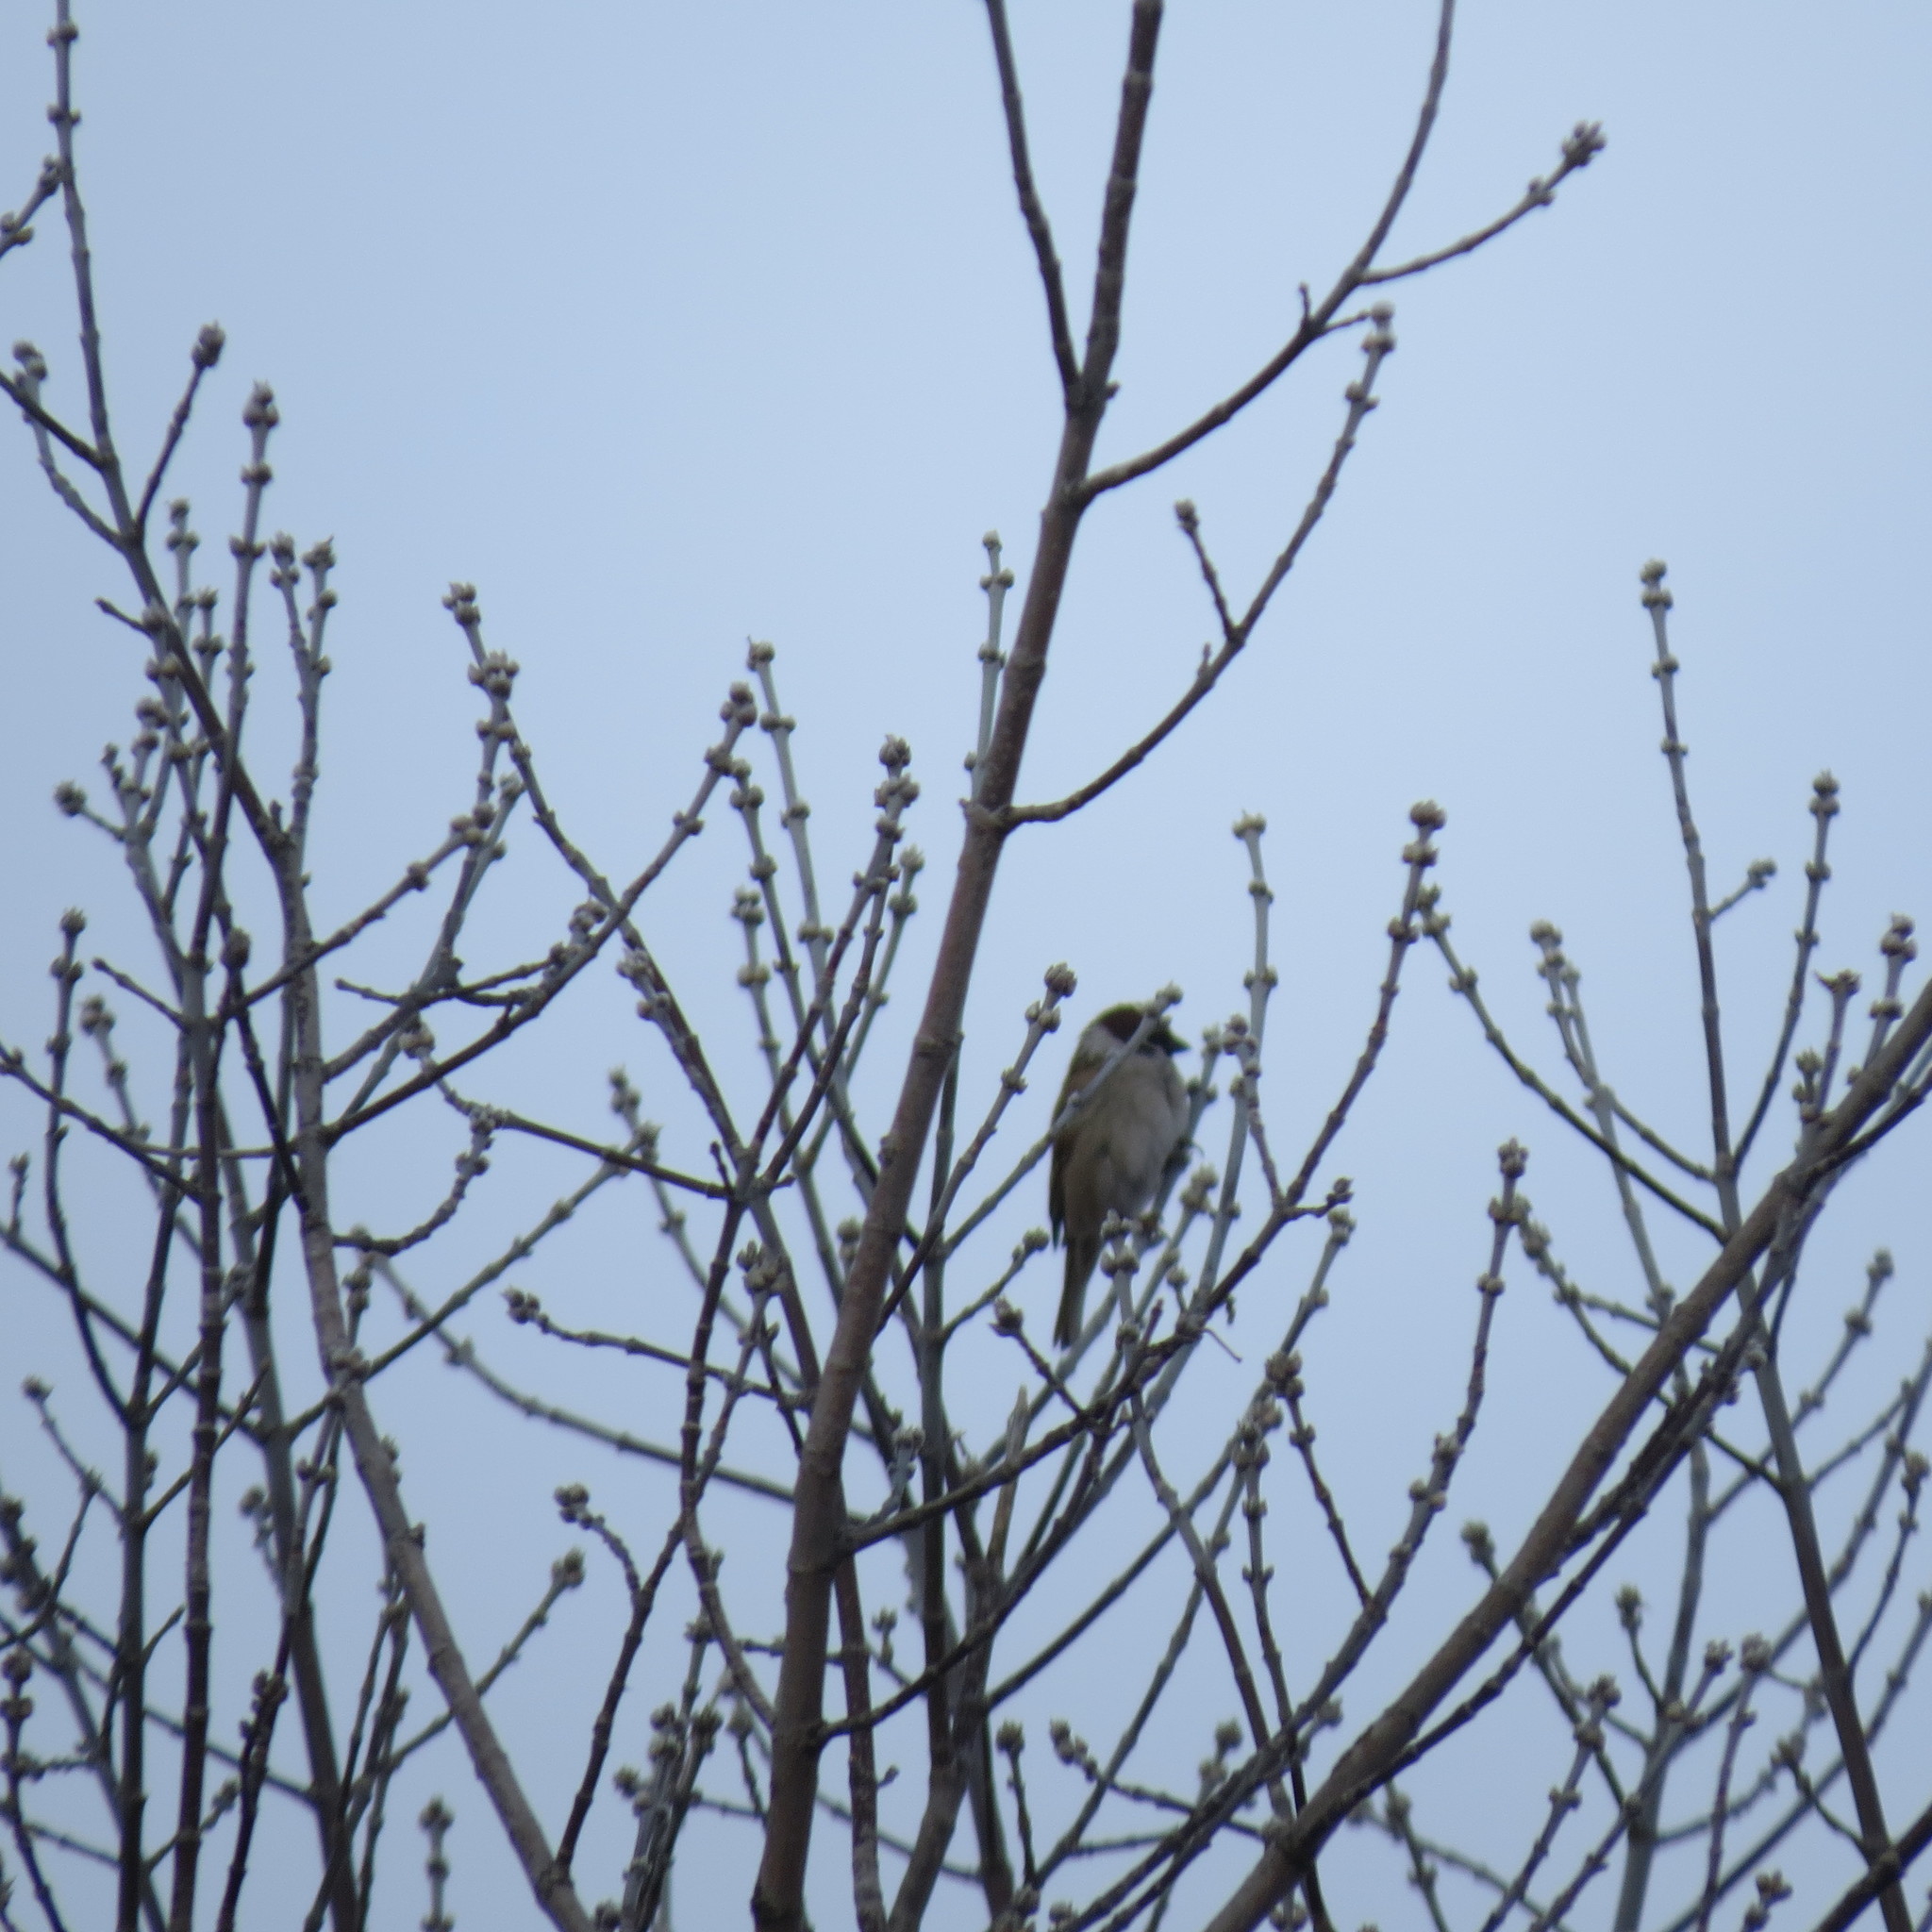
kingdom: Animalia
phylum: Chordata
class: Aves
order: Passeriformes
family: Passeridae
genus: Passer
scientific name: Passer montanus
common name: Eurasian tree sparrow
